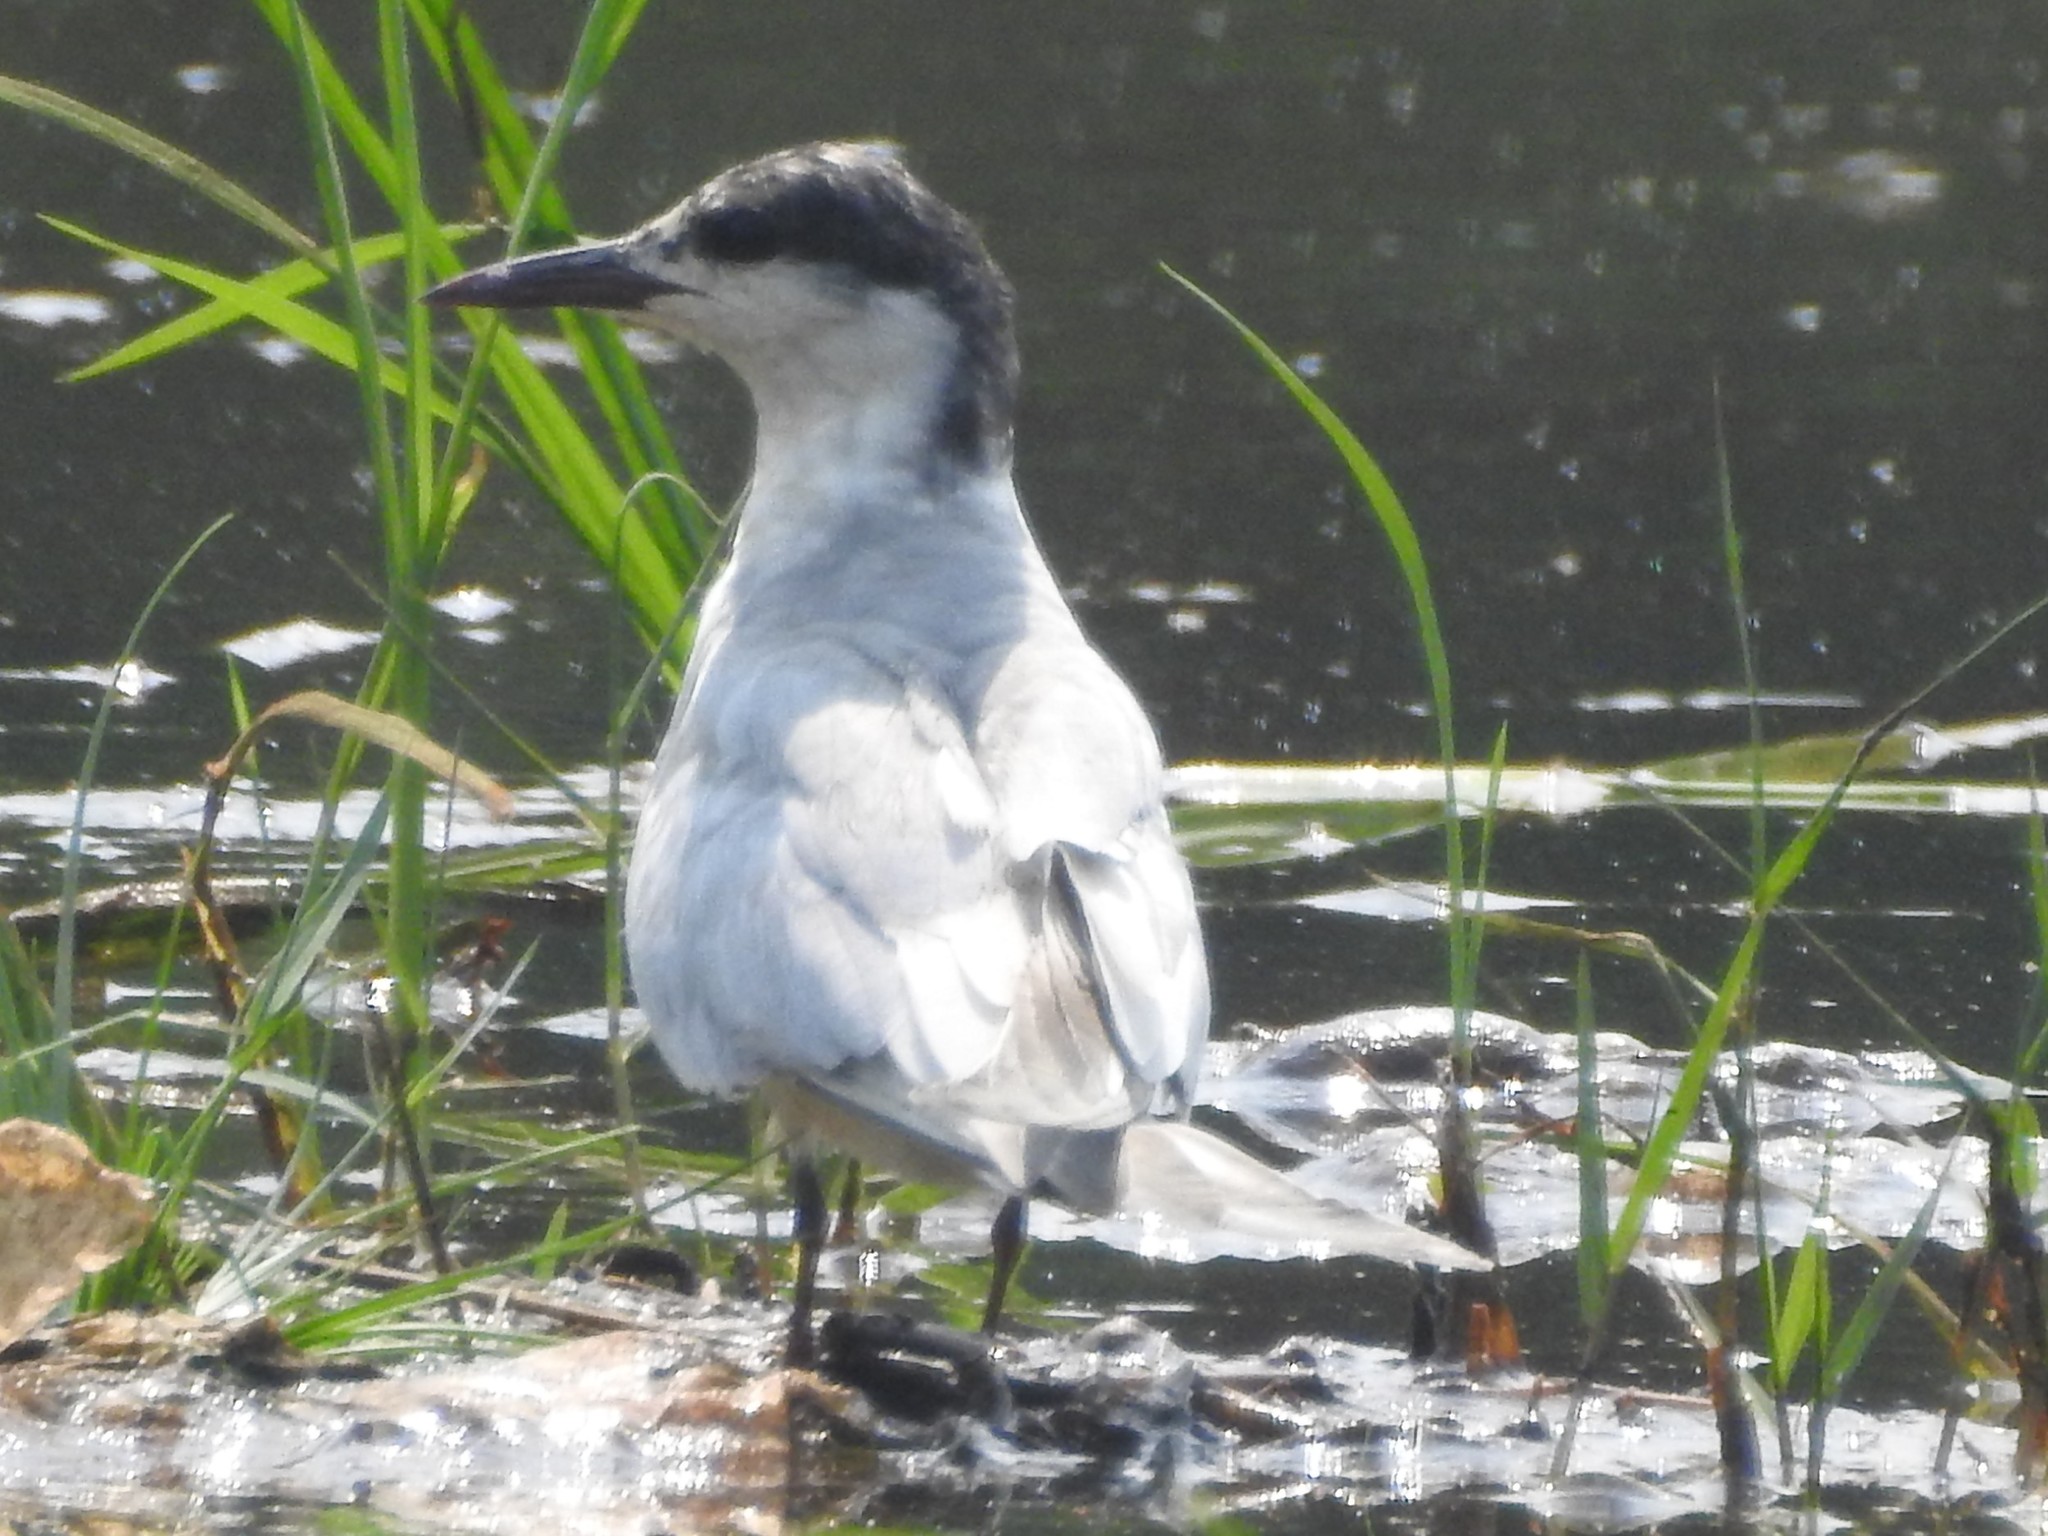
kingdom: Animalia
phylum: Chordata
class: Aves
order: Charadriiformes
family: Laridae
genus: Chlidonias
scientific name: Chlidonias hybrida
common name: Whiskered tern
